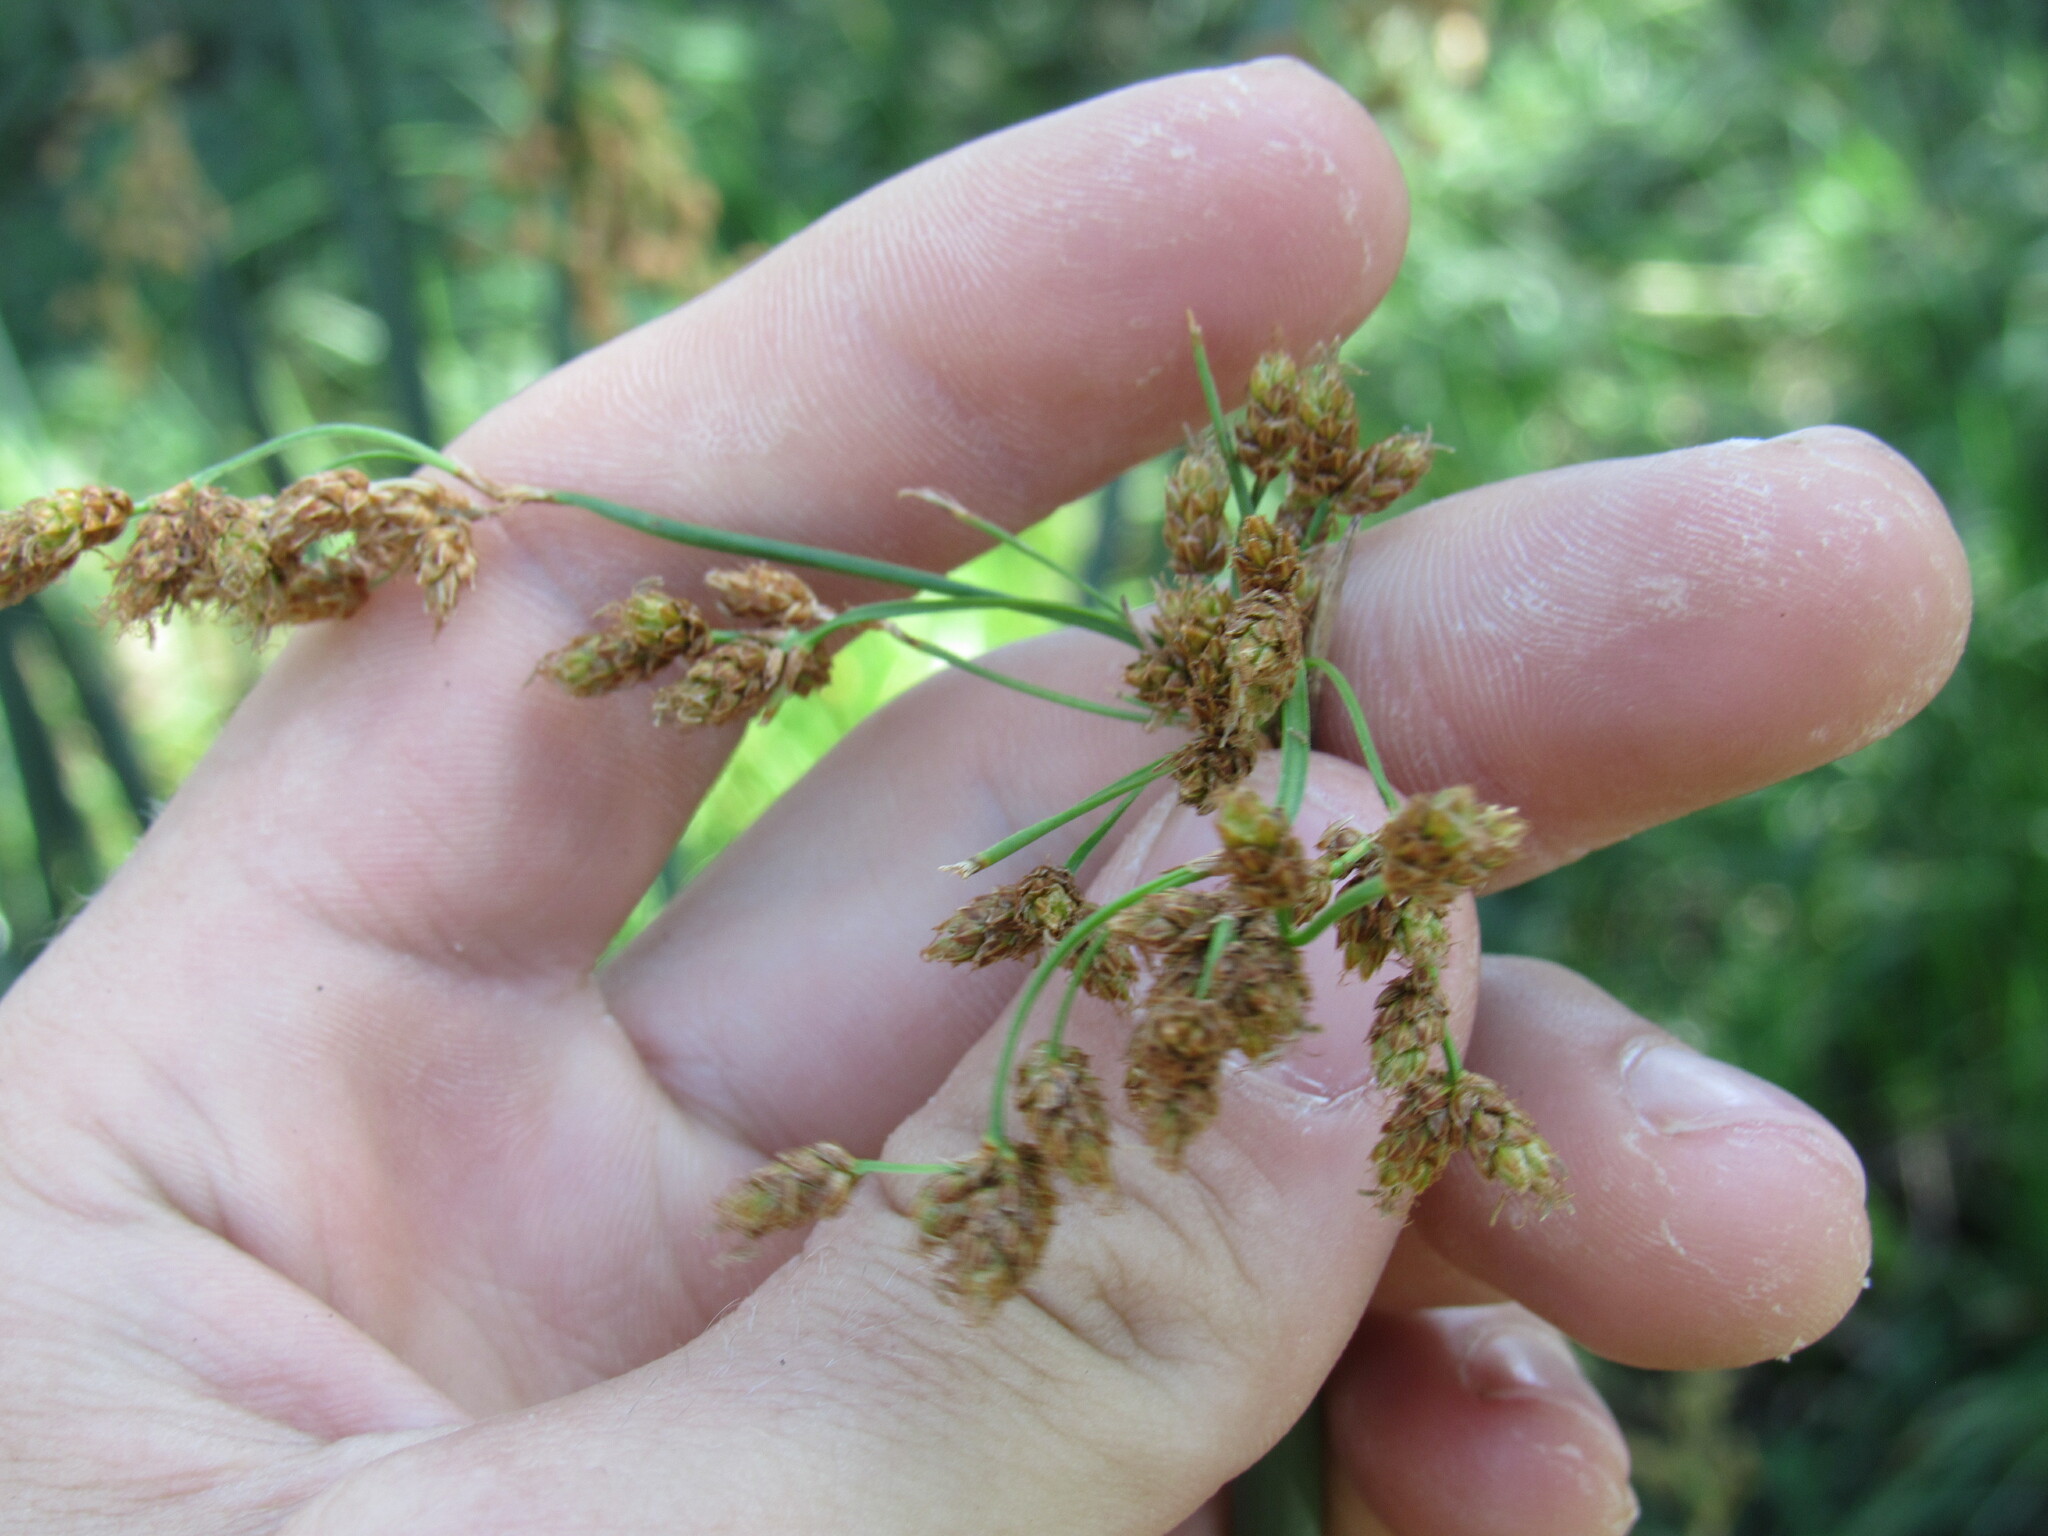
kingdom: Plantae
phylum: Tracheophyta
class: Liliopsida
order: Poales
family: Cyperaceae
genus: Schoenoplectus
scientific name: Schoenoplectus tabernaemontani
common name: Grey club-rush
